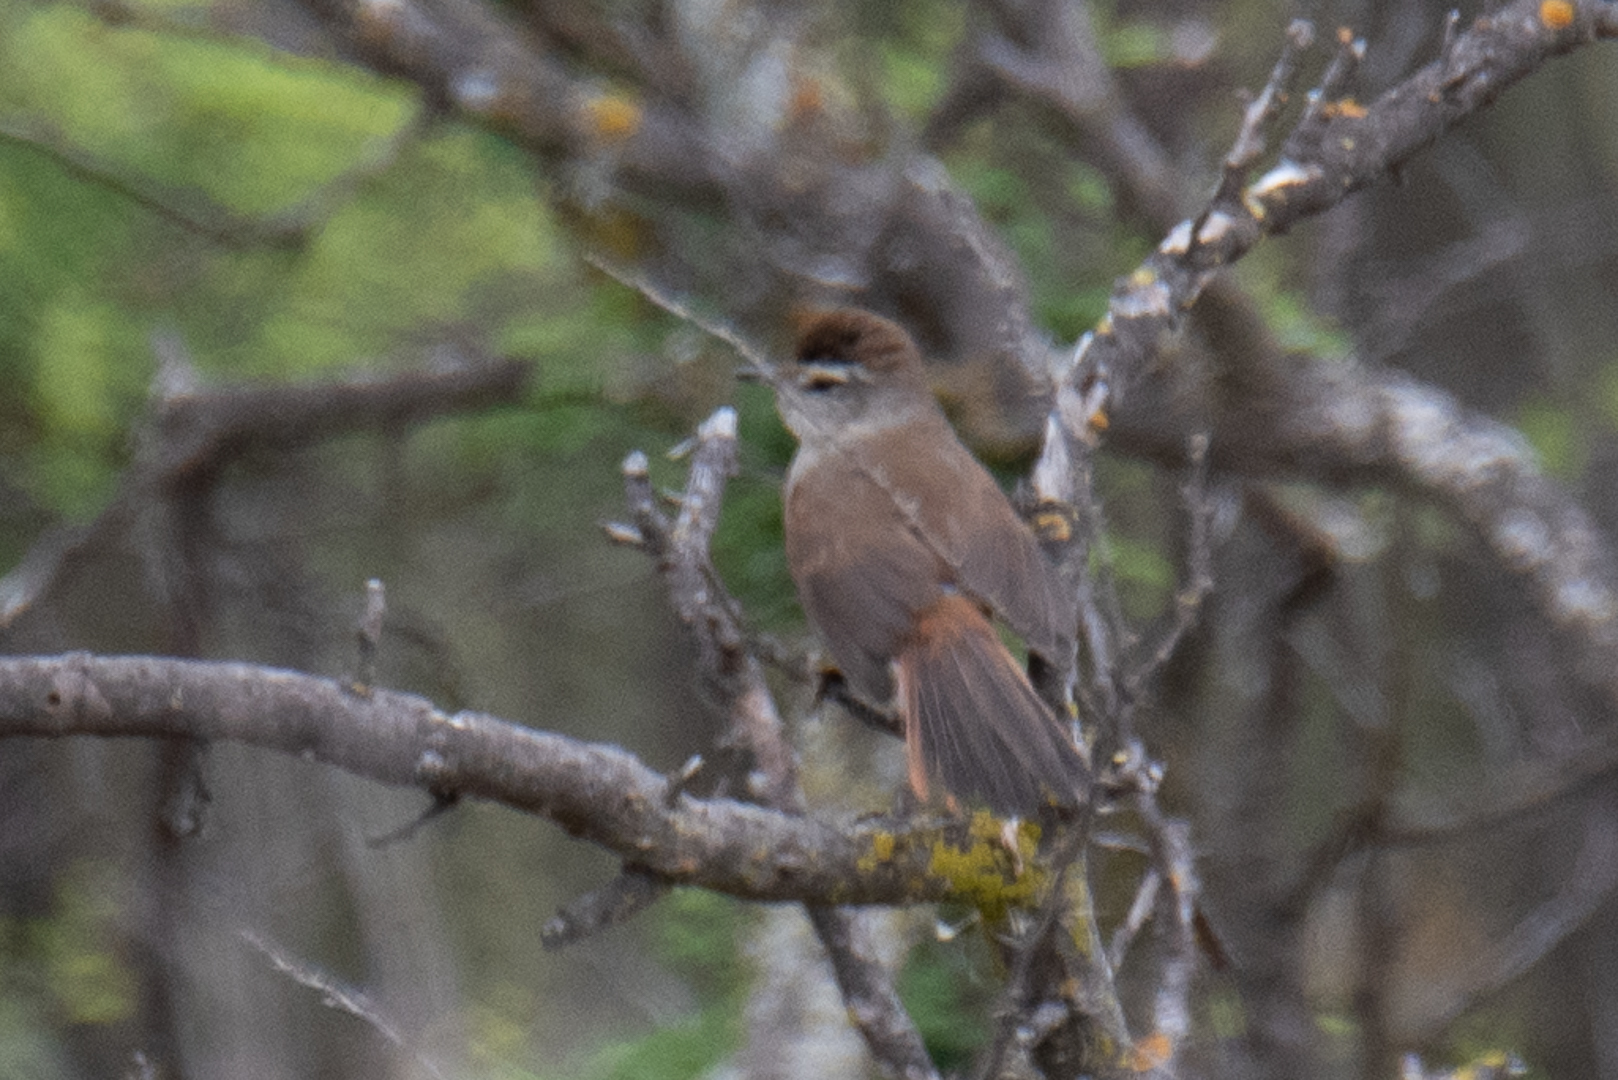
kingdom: Animalia
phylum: Chordata
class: Aves
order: Passeriformes
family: Furnariidae
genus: Asthenes
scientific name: Asthenes humicola
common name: Dusky-tailed canastero
